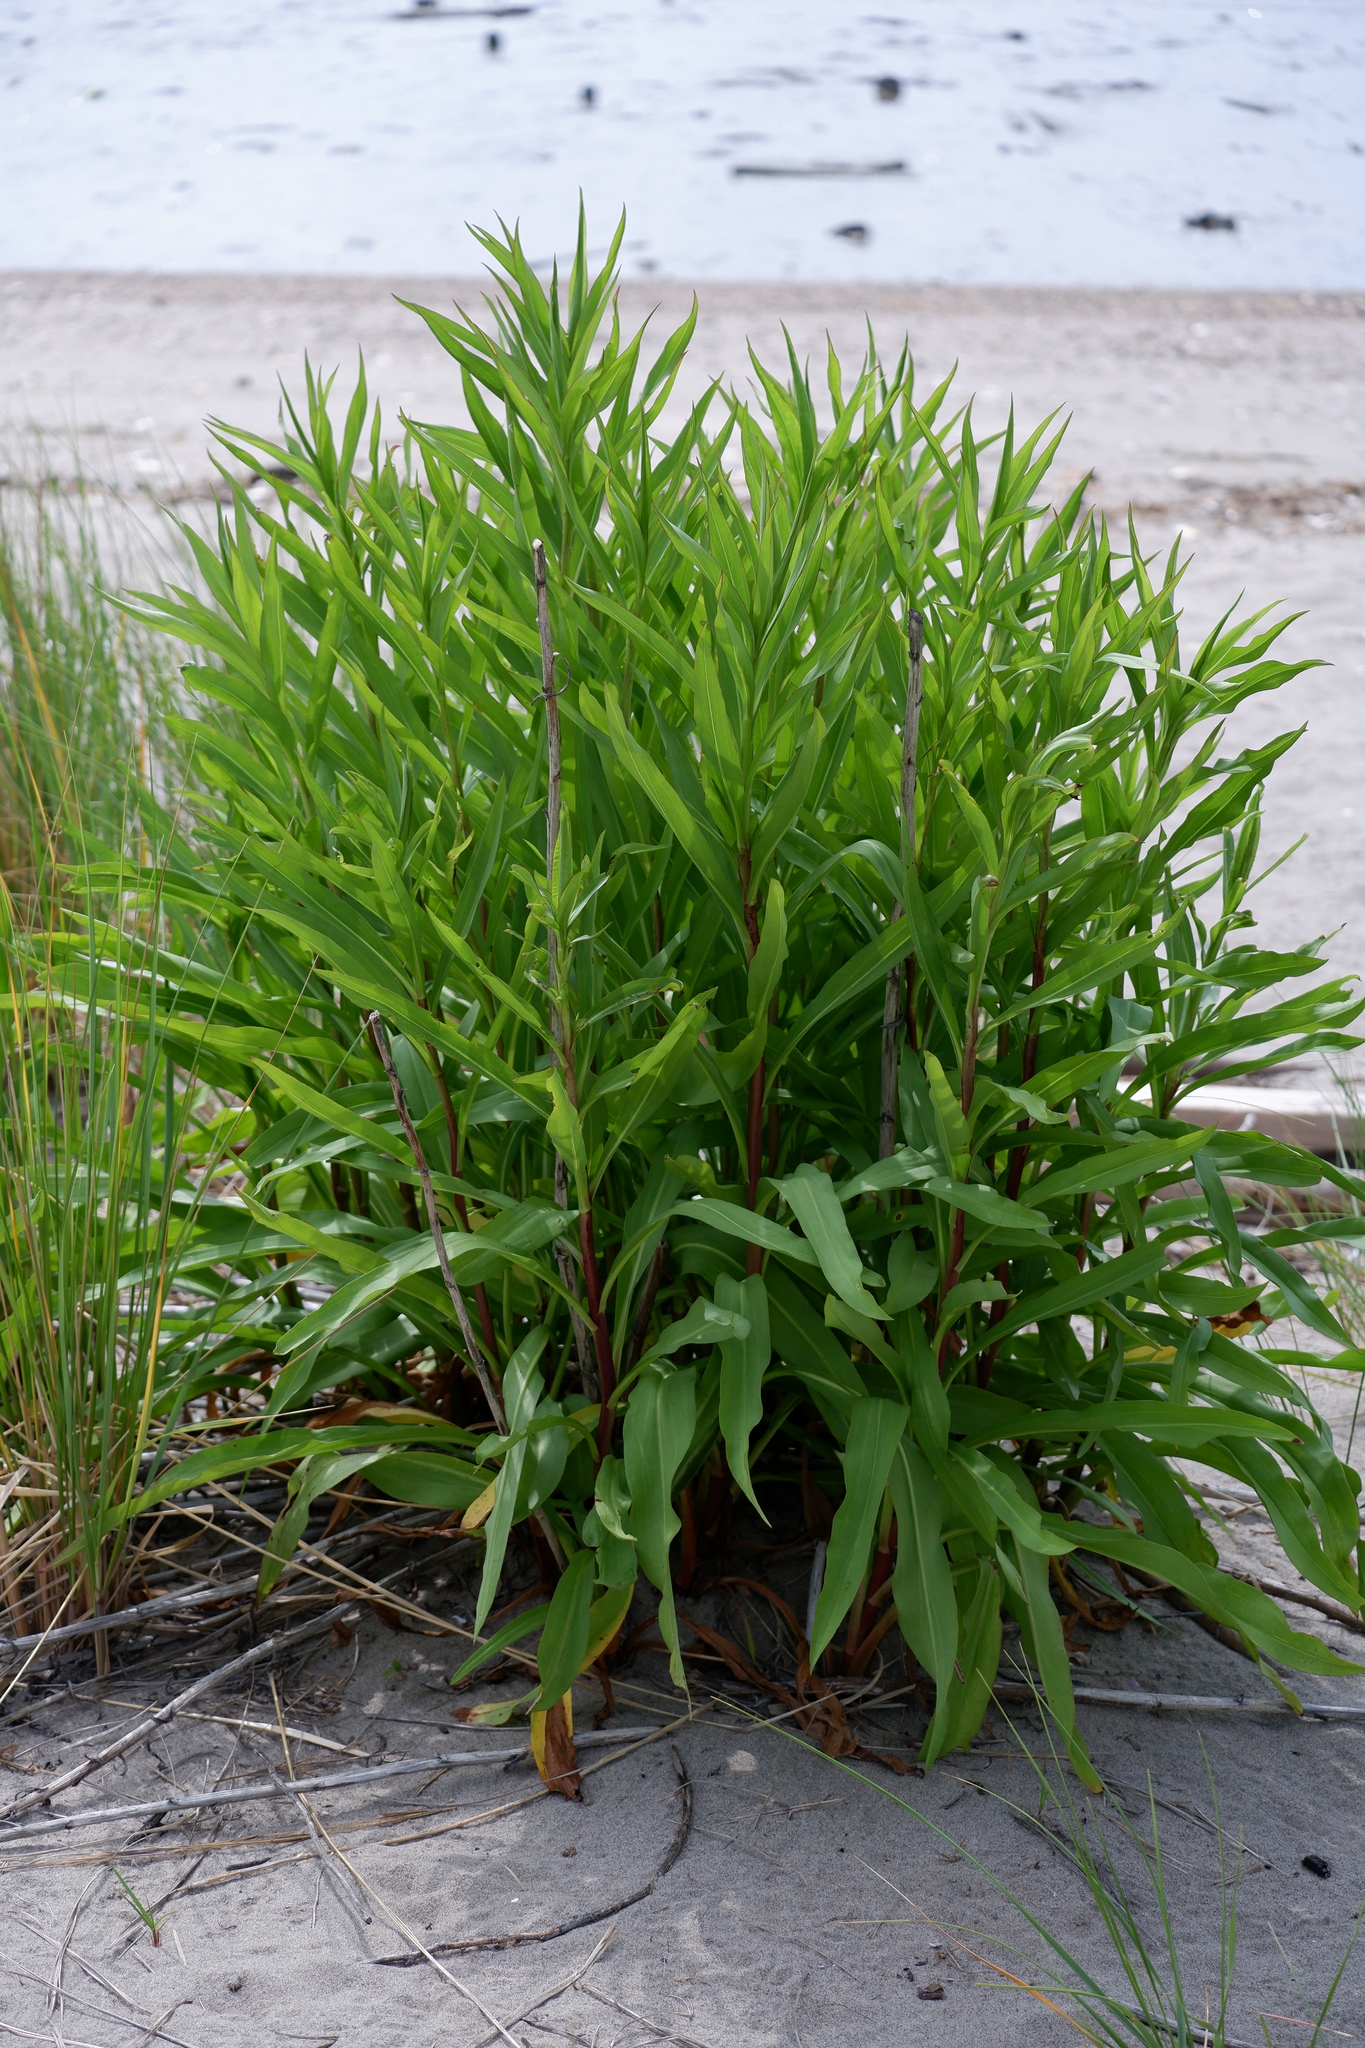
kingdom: Plantae
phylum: Tracheophyta
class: Magnoliopsida
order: Asterales
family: Asteraceae
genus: Solidago
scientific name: Solidago sempervirens
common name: Salt-marsh goldenrod
